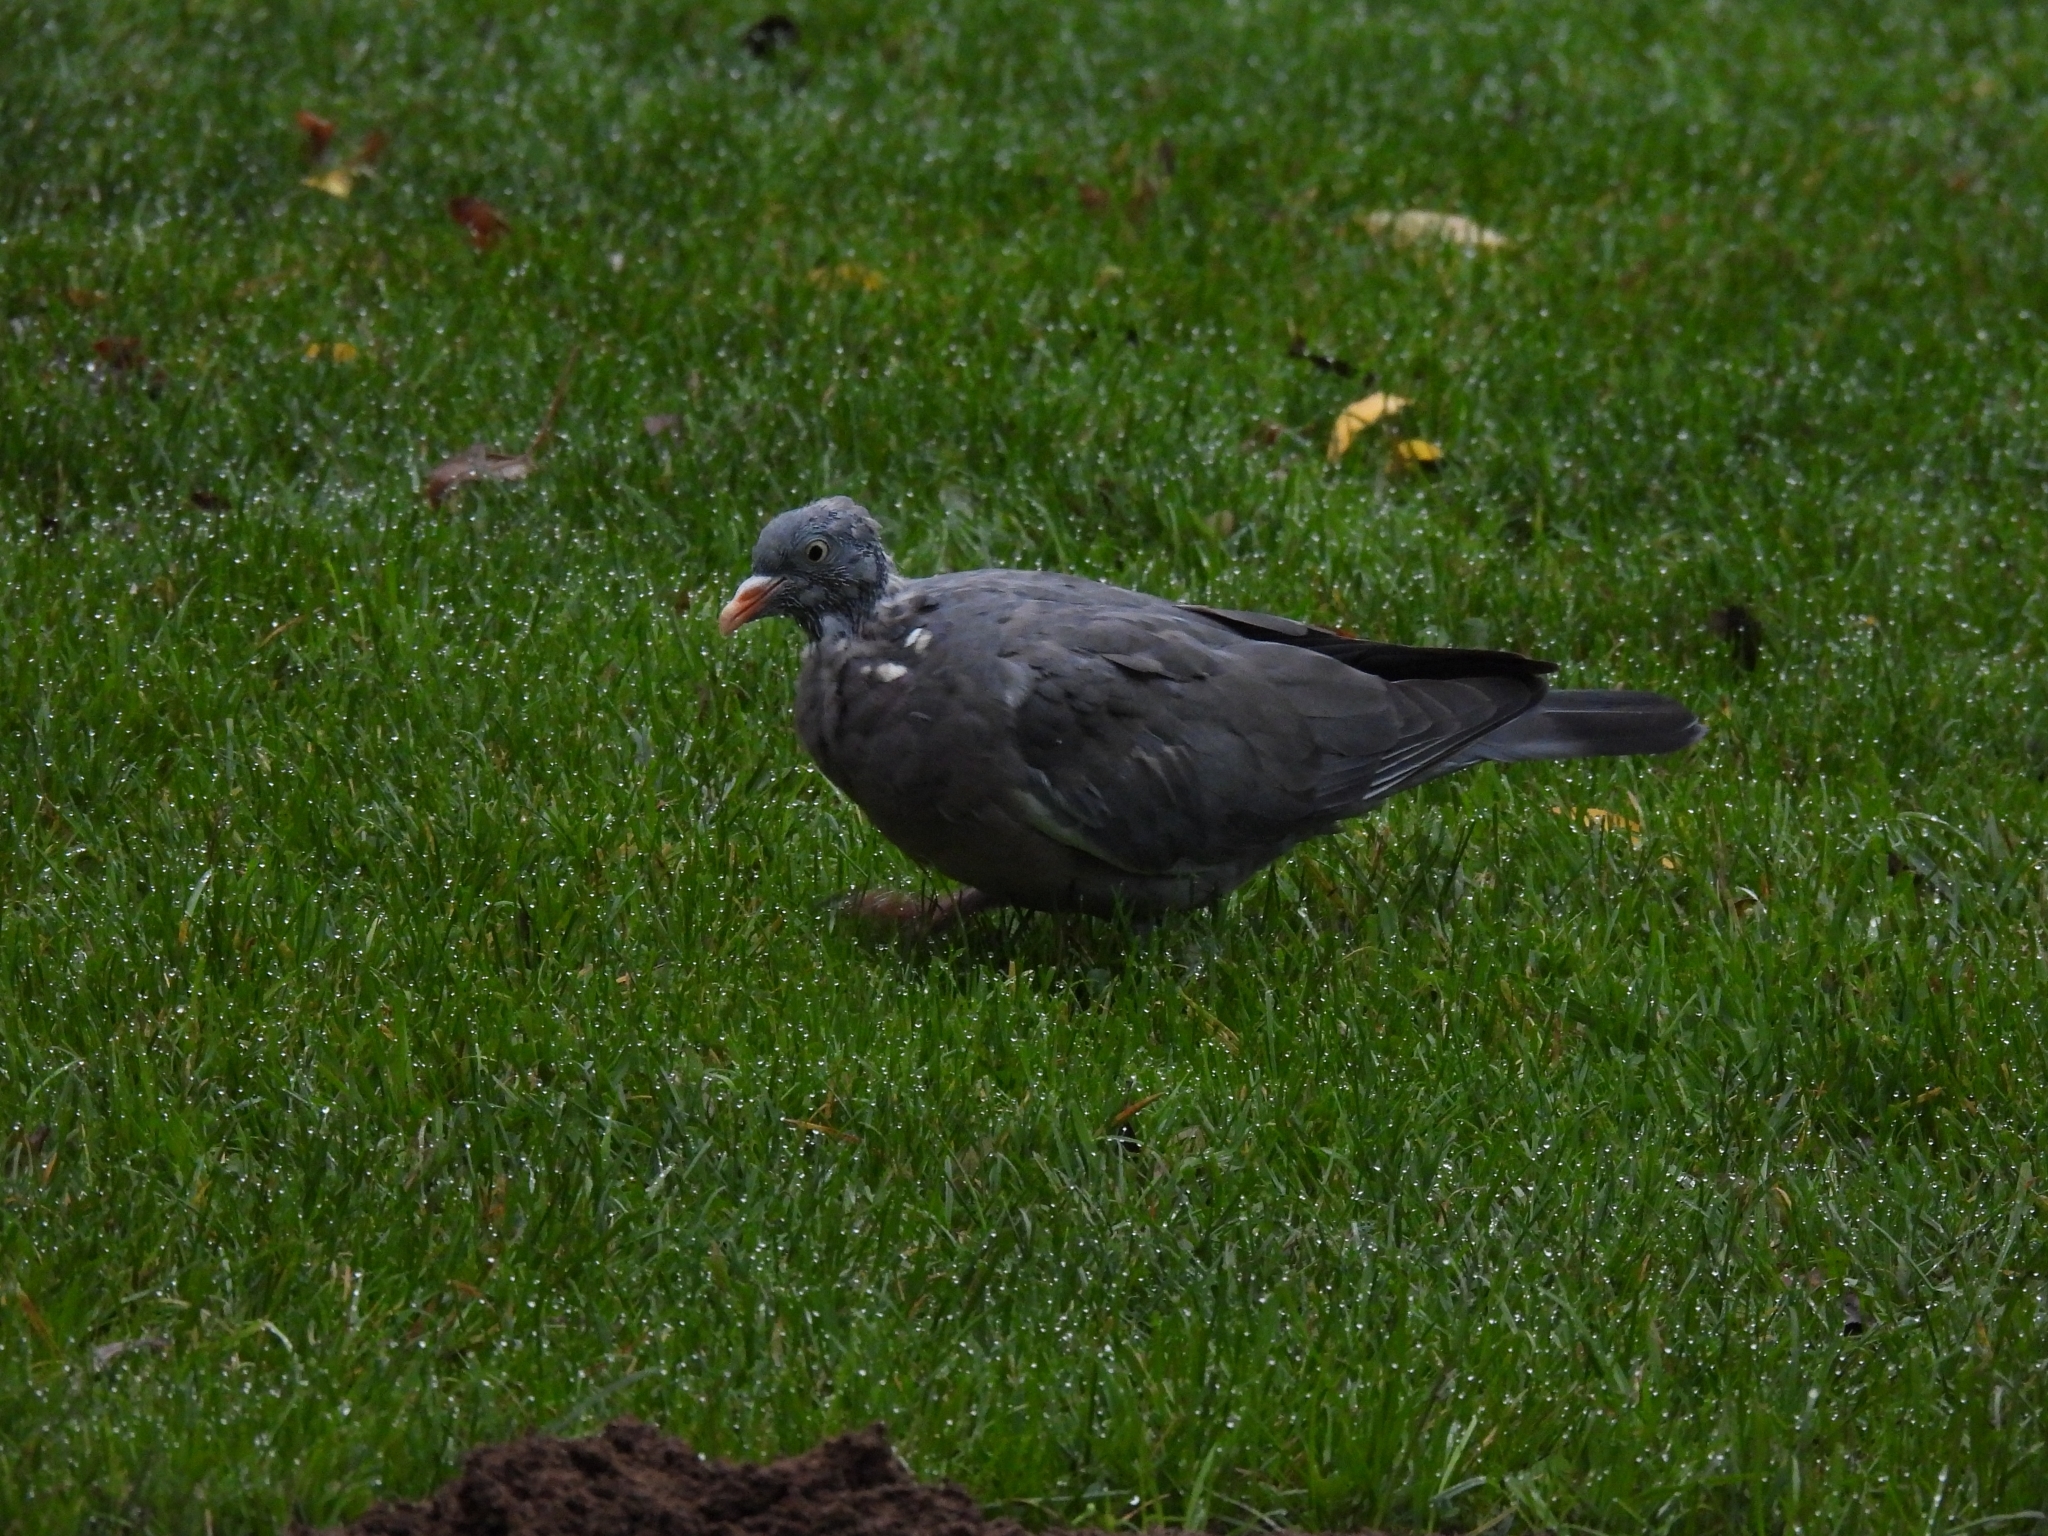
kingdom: Animalia
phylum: Chordata
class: Aves
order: Columbiformes
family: Columbidae
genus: Columba
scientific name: Columba palumbus
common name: Common wood pigeon
